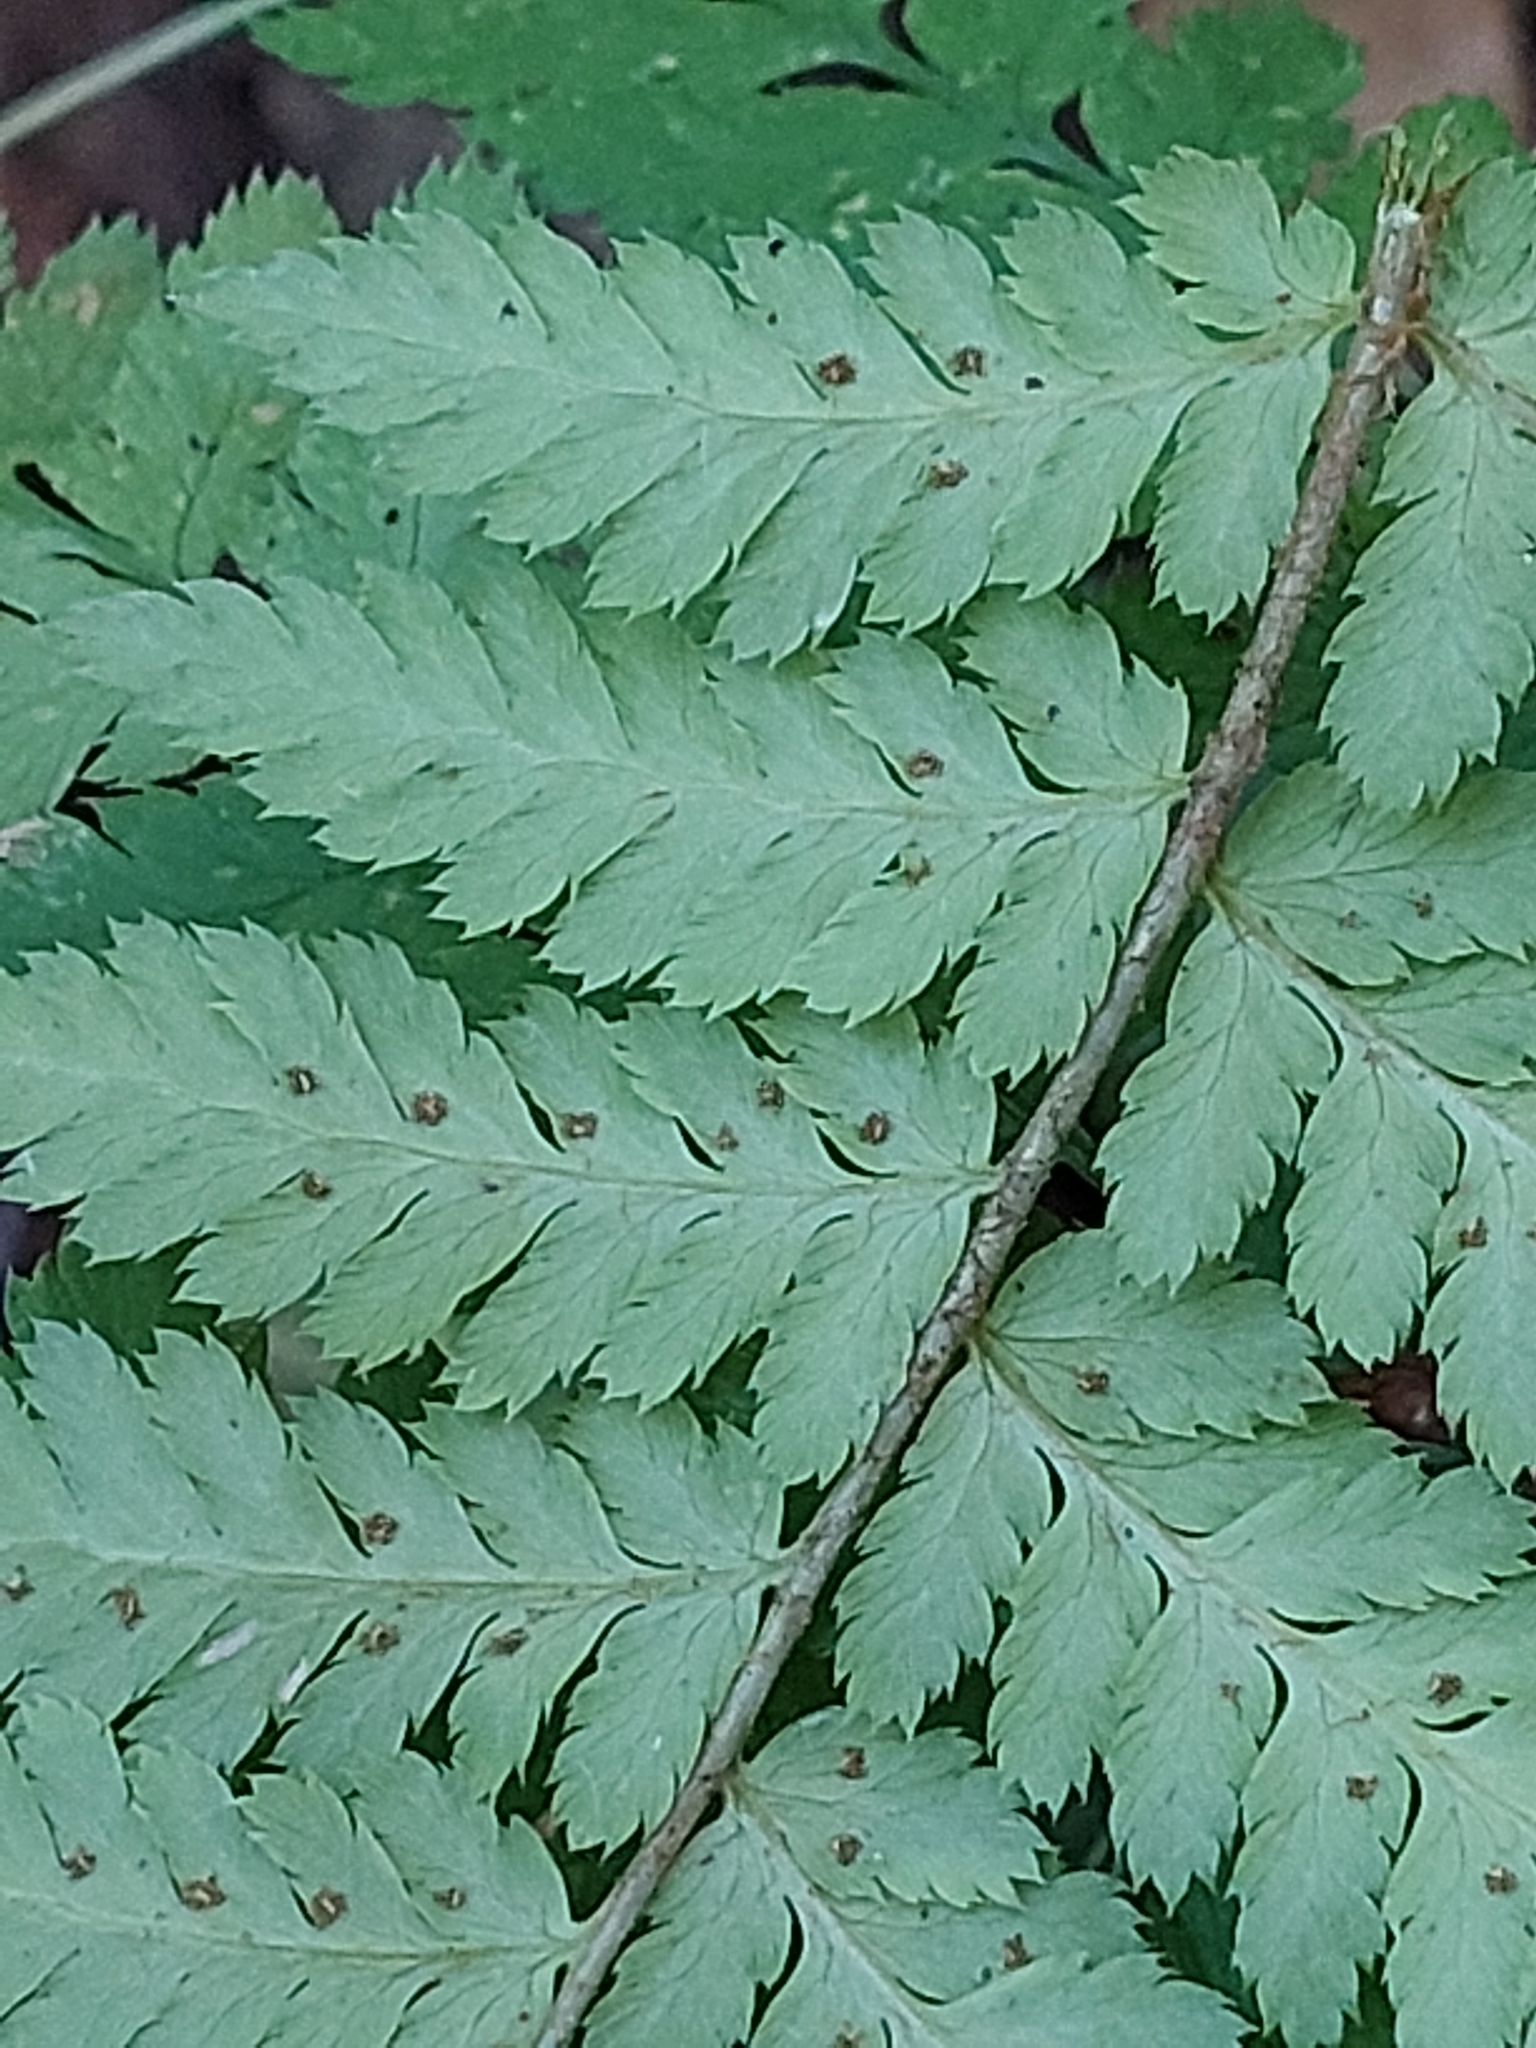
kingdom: Plantae
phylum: Tracheophyta
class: Polypodiopsida
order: Polypodiales
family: Dryopteridaceae
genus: Dryopteris
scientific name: Dryopteris expansa
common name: Northern buckler fern
